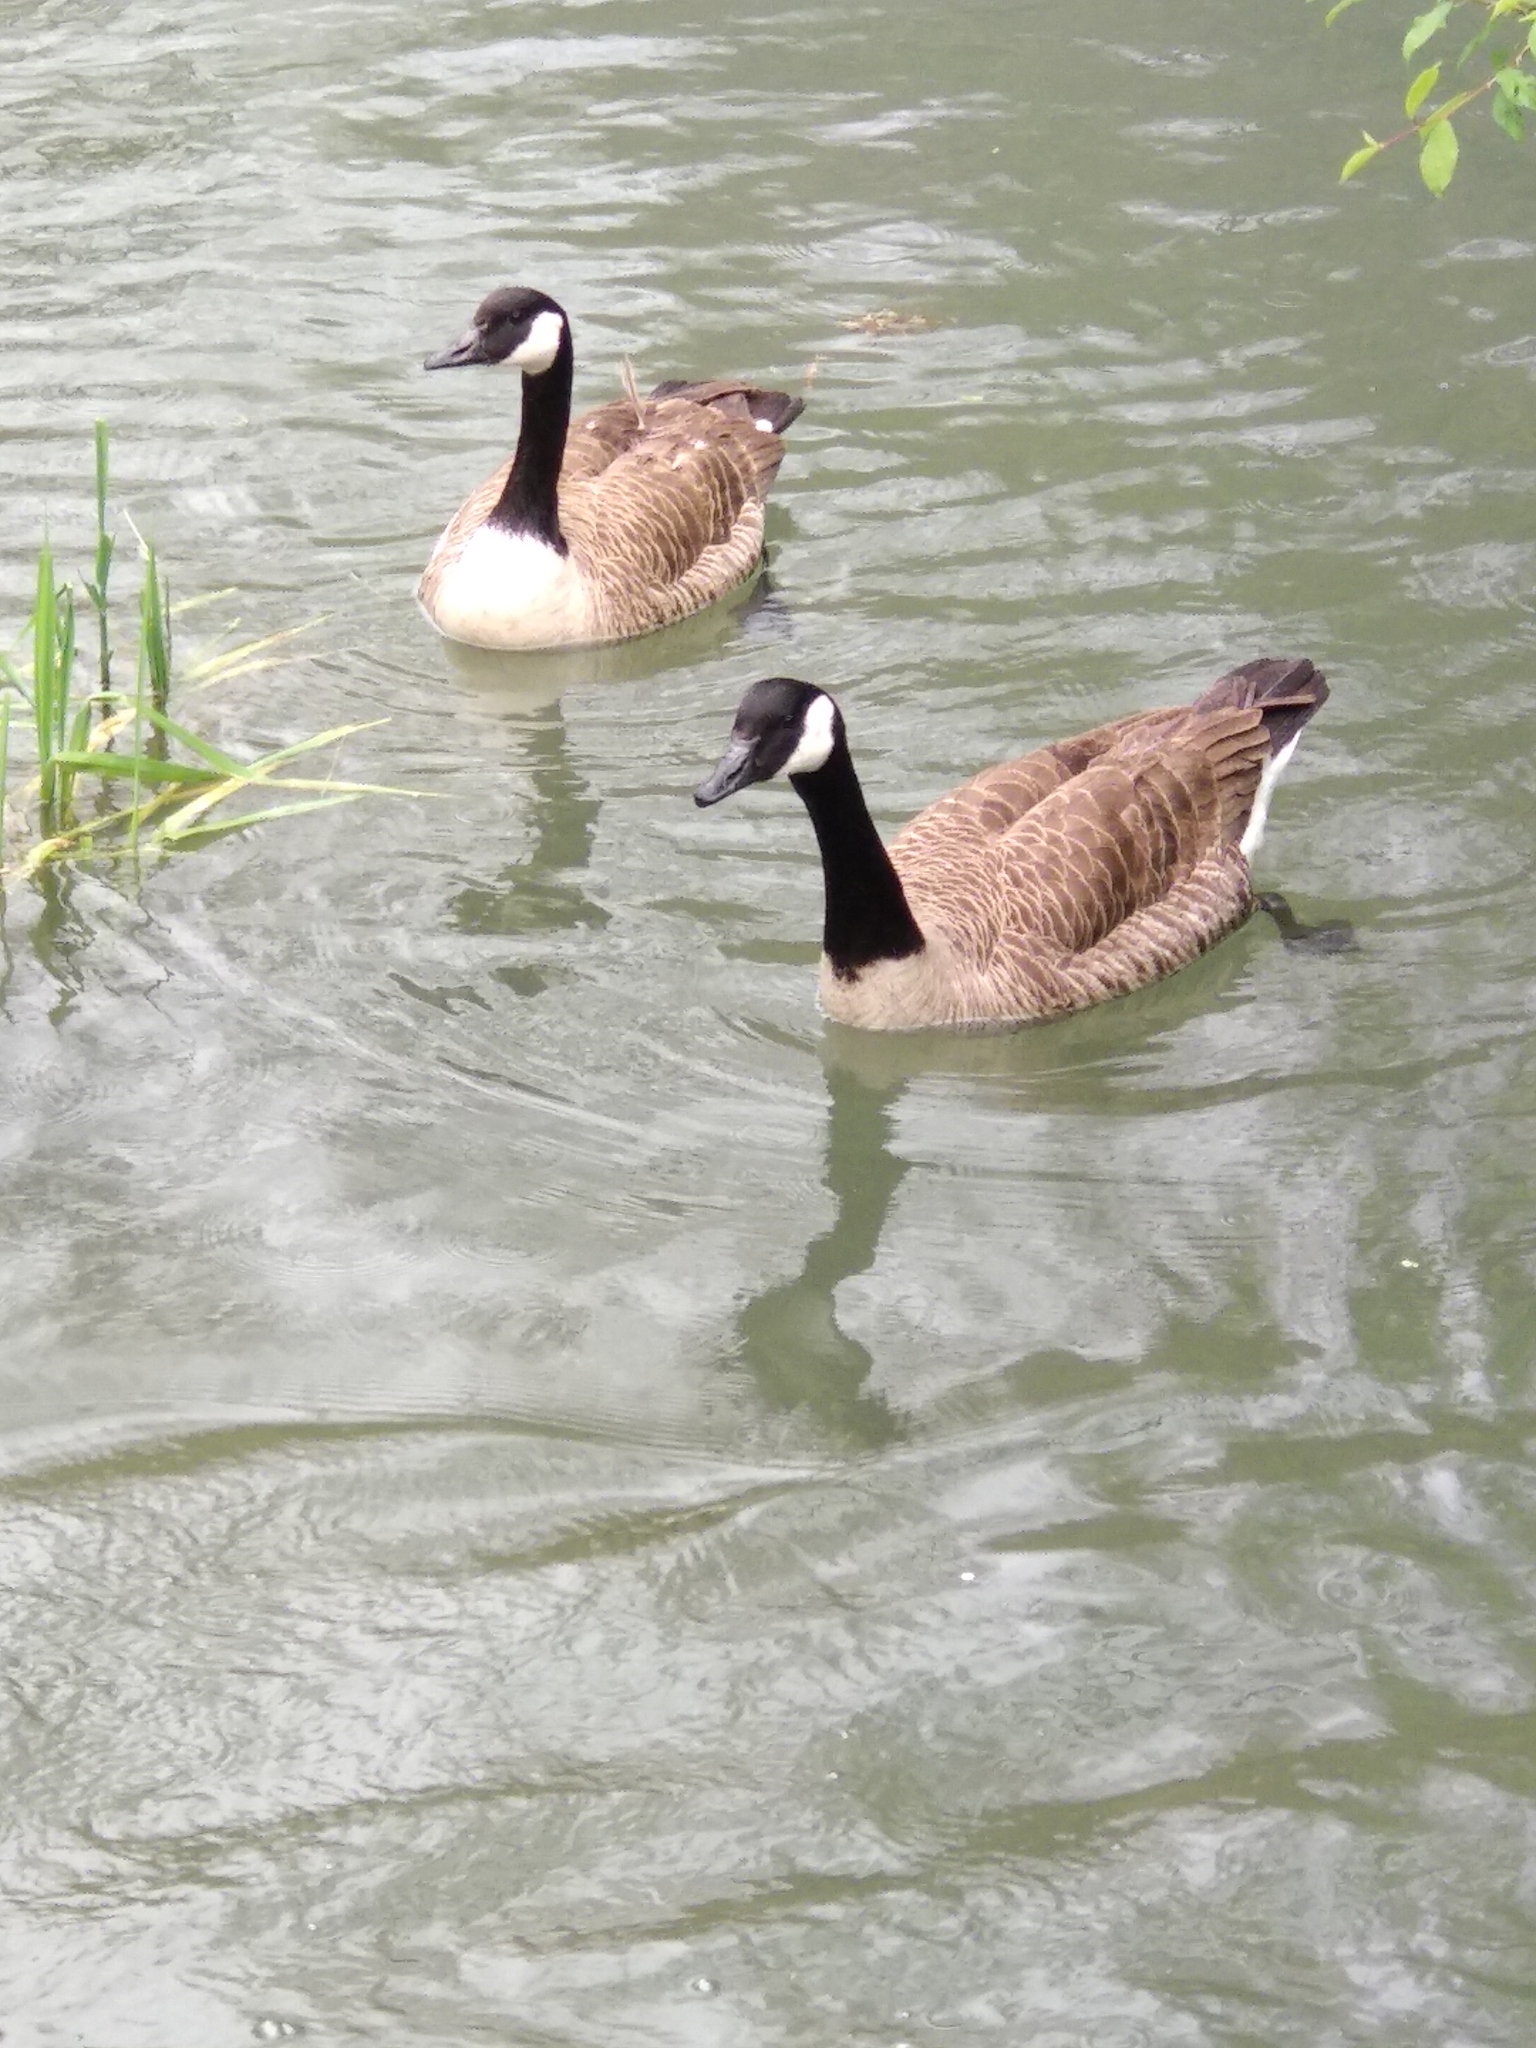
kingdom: Animalia
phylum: Chordata
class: Aves
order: Anseriformes
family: Anatidae
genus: Branta
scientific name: Branta canadensis
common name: Canada goose
